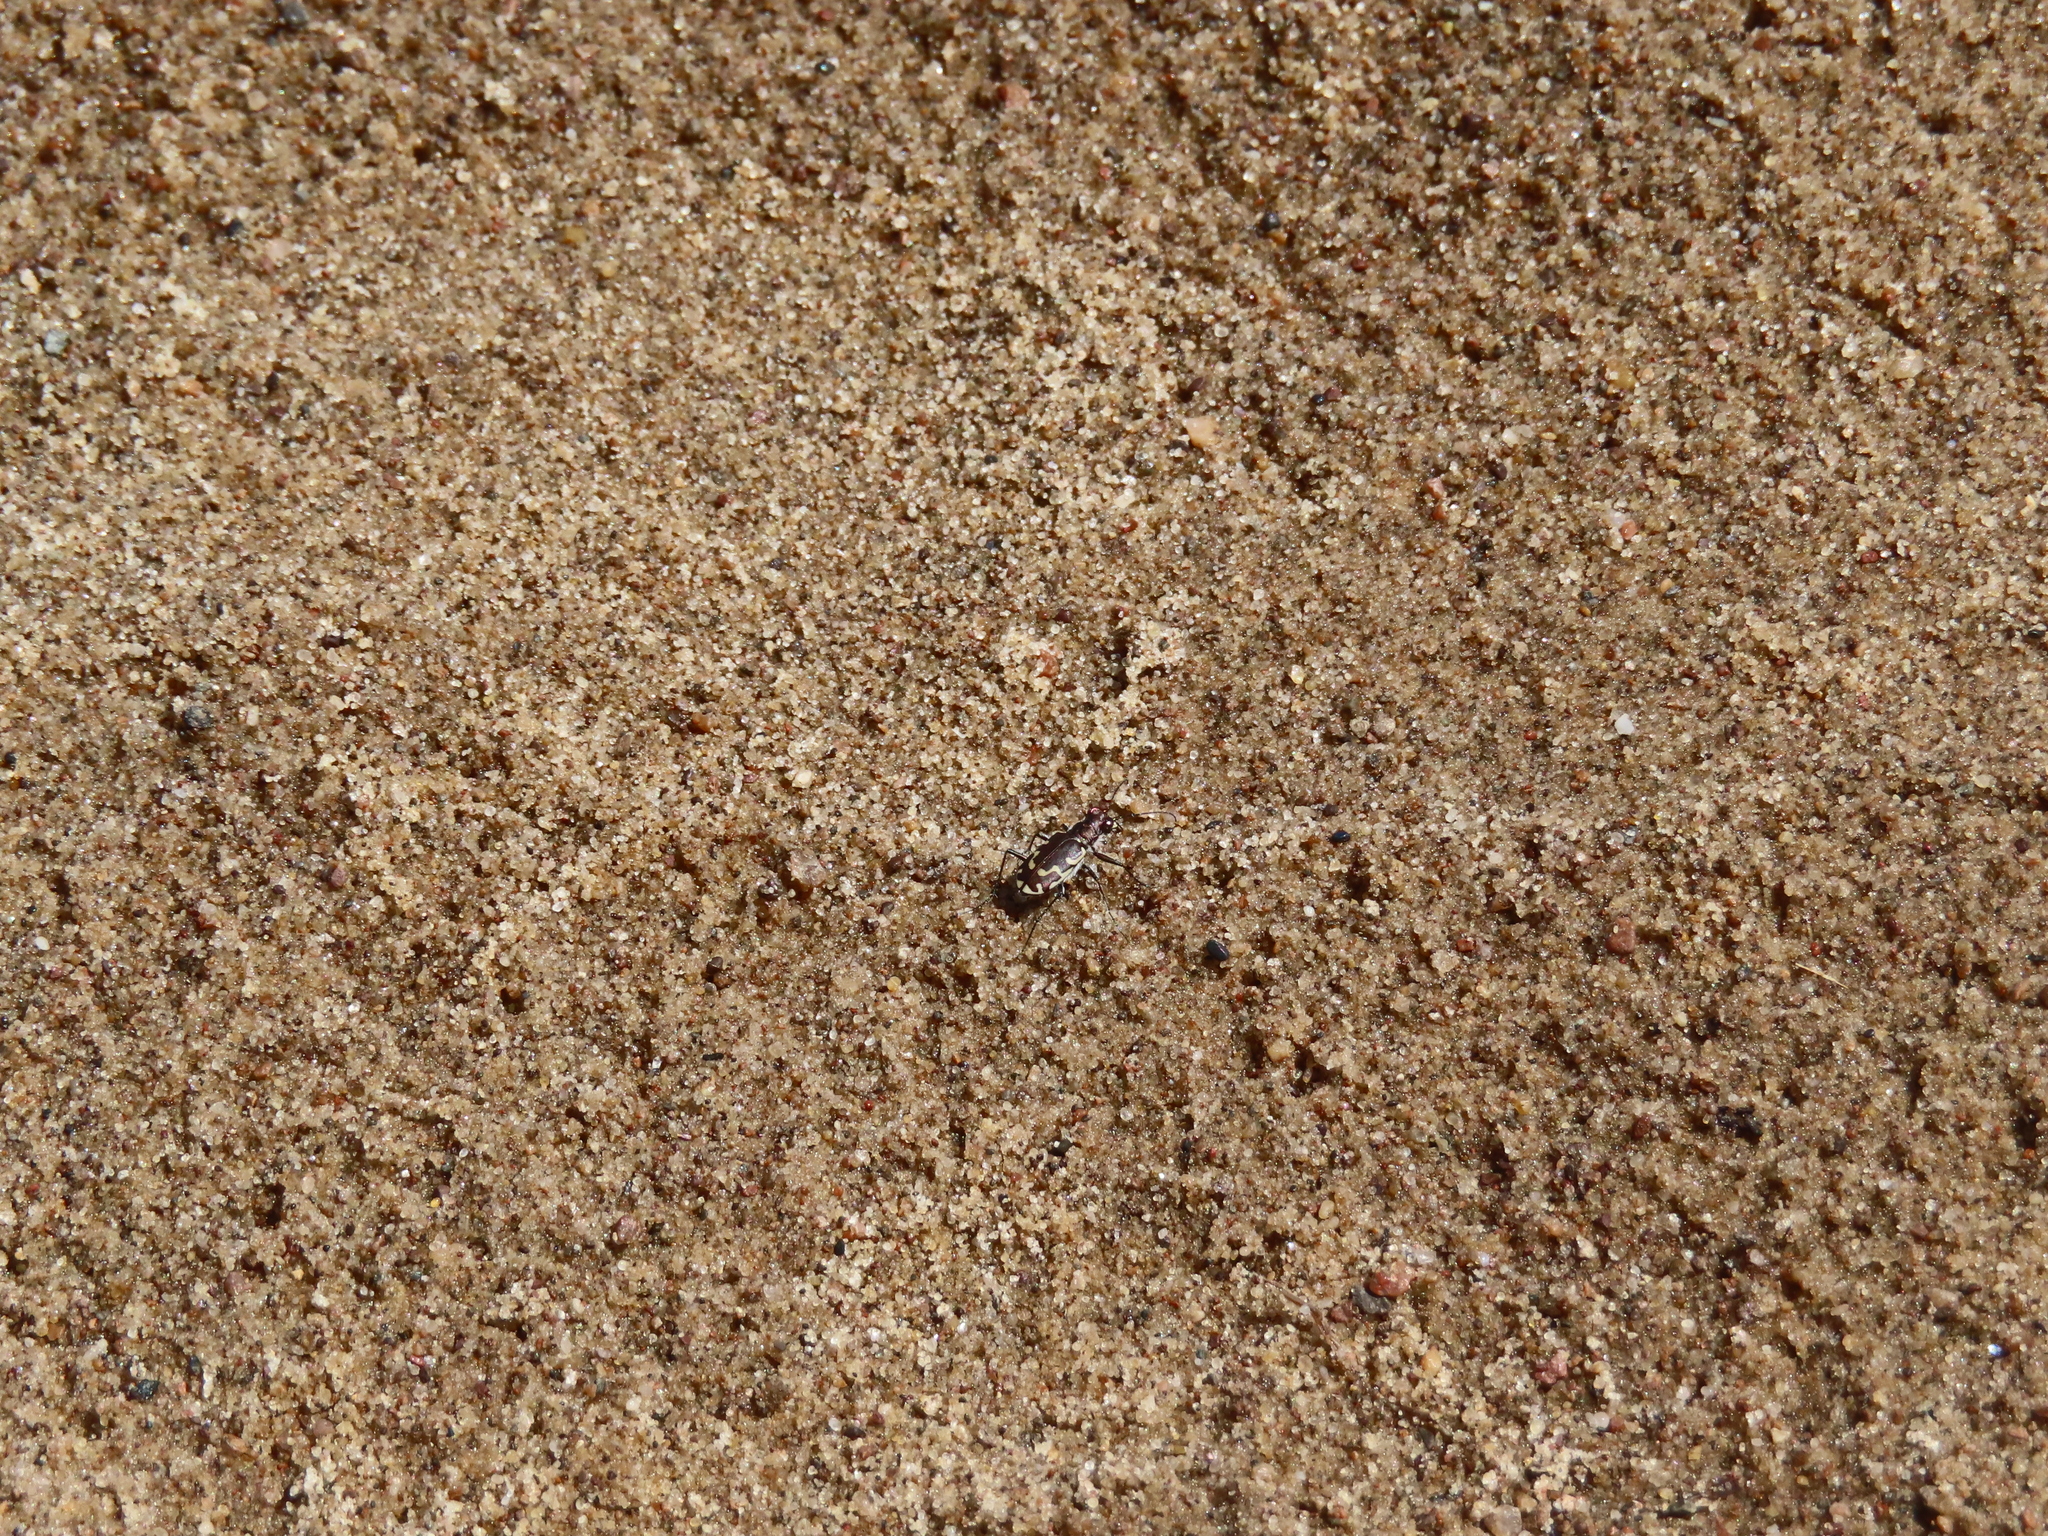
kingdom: Animalia
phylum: Arthropoda
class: Insecta
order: Coleoptera
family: Carabidae
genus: Cicindela
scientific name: Cicindela repanda
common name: Bronzed tiger beetle
